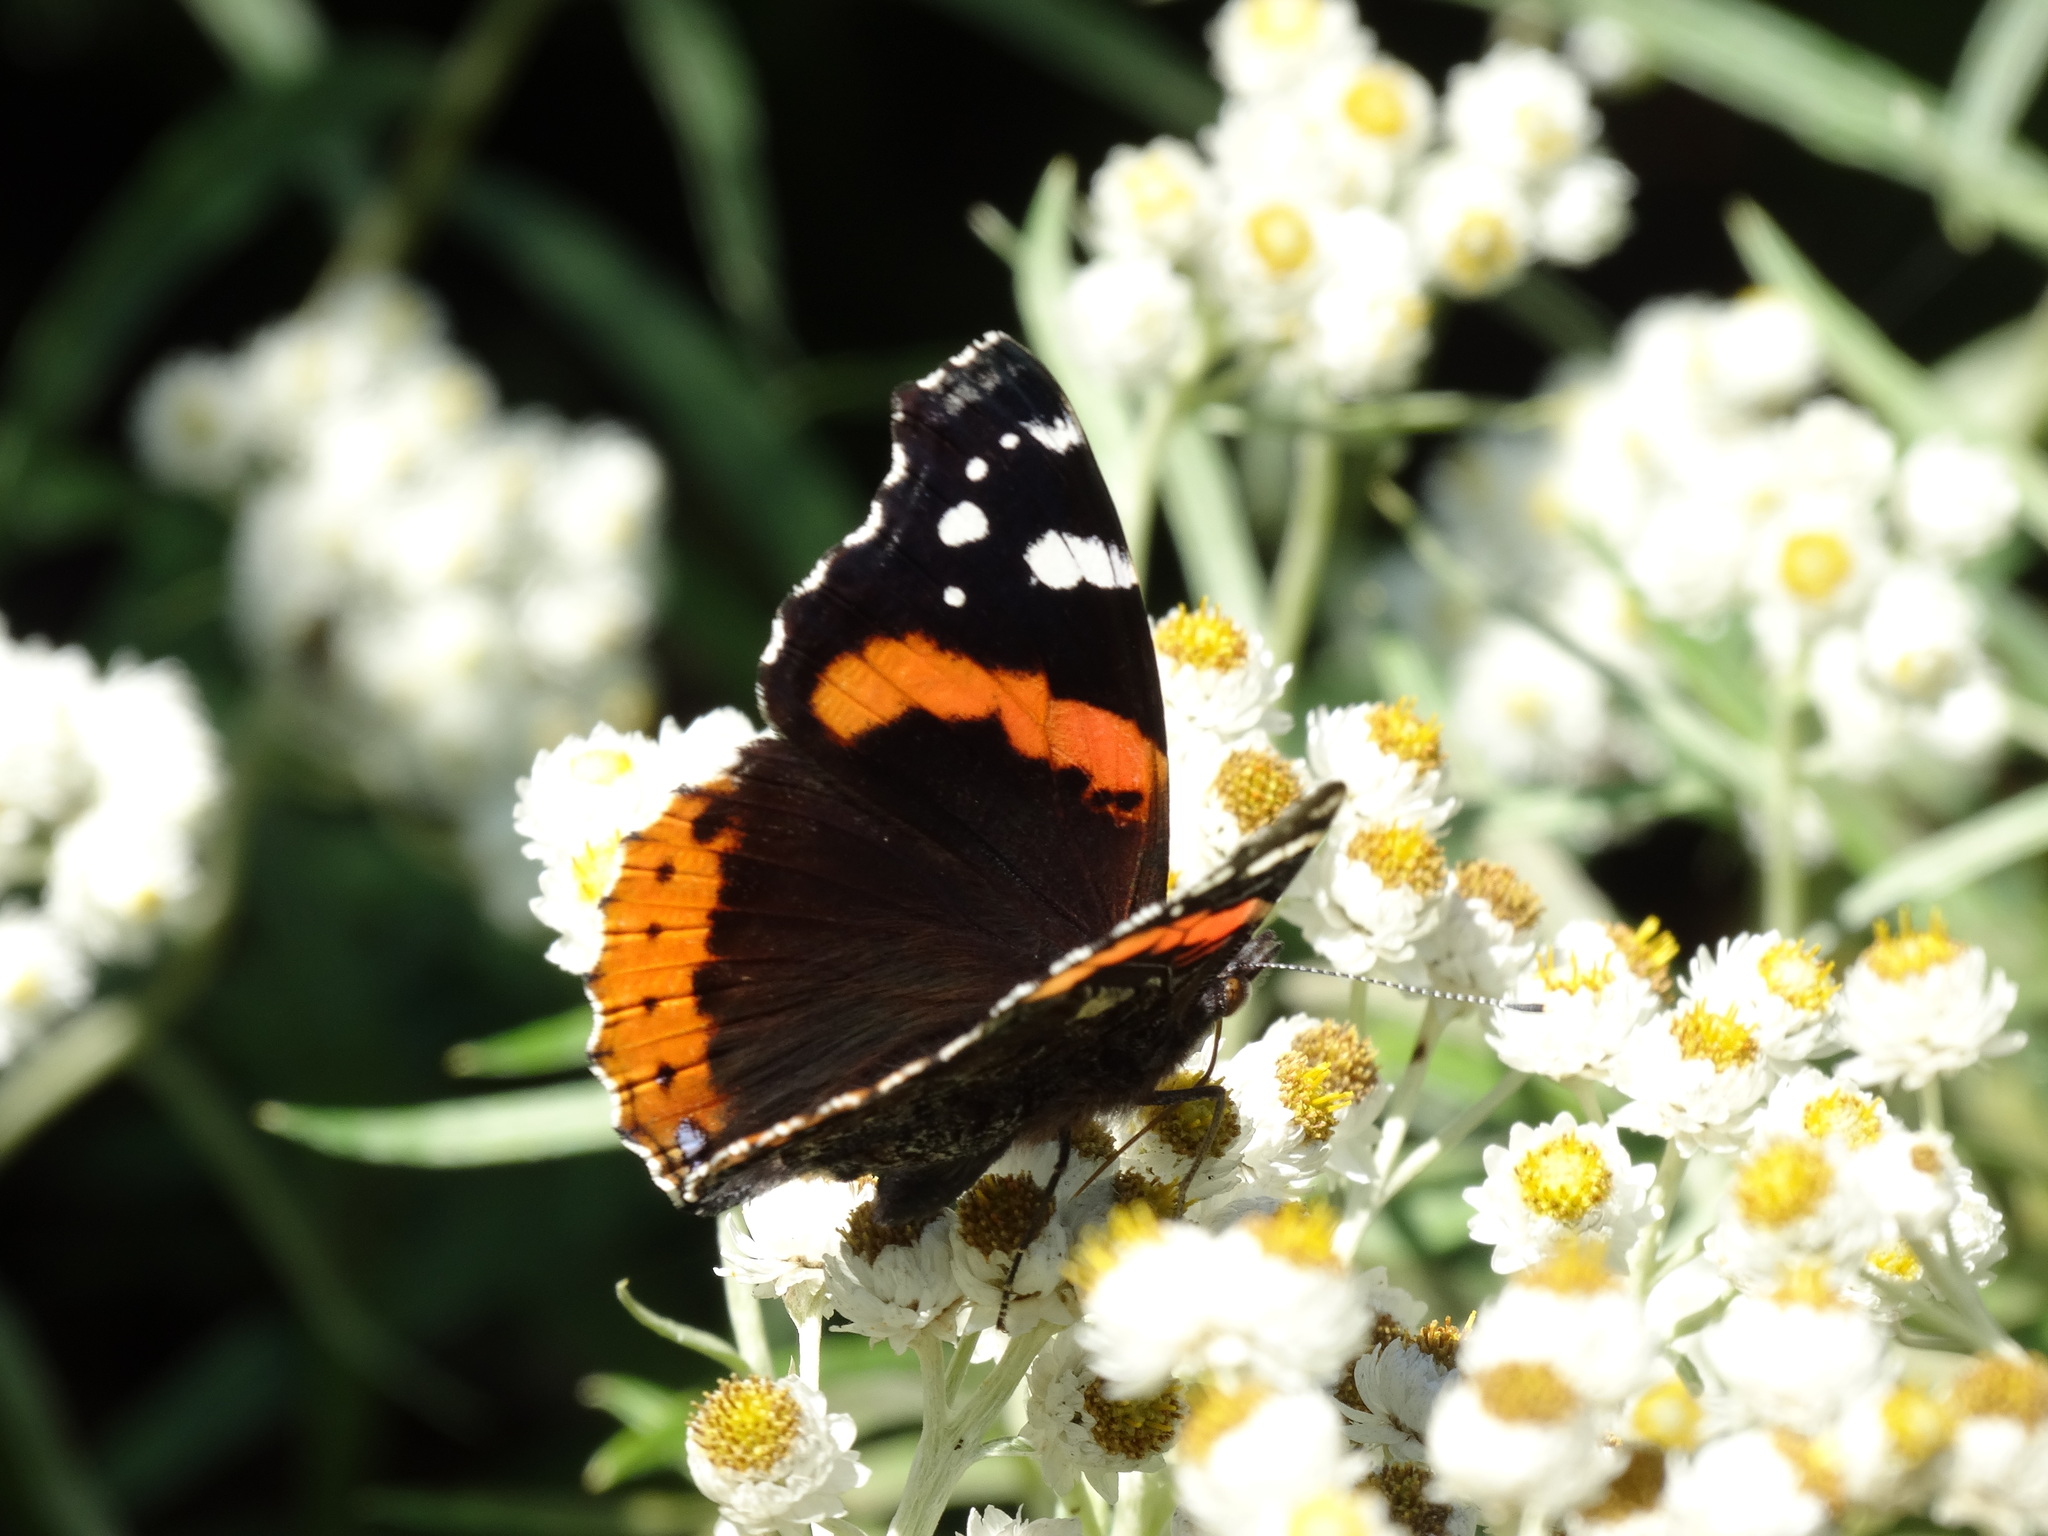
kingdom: Animalia
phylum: Arthropoda
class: Insecta
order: Lepidoptera
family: Nymphalidae
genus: Vanessa
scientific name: Vanessa atalanta
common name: Red admiral
